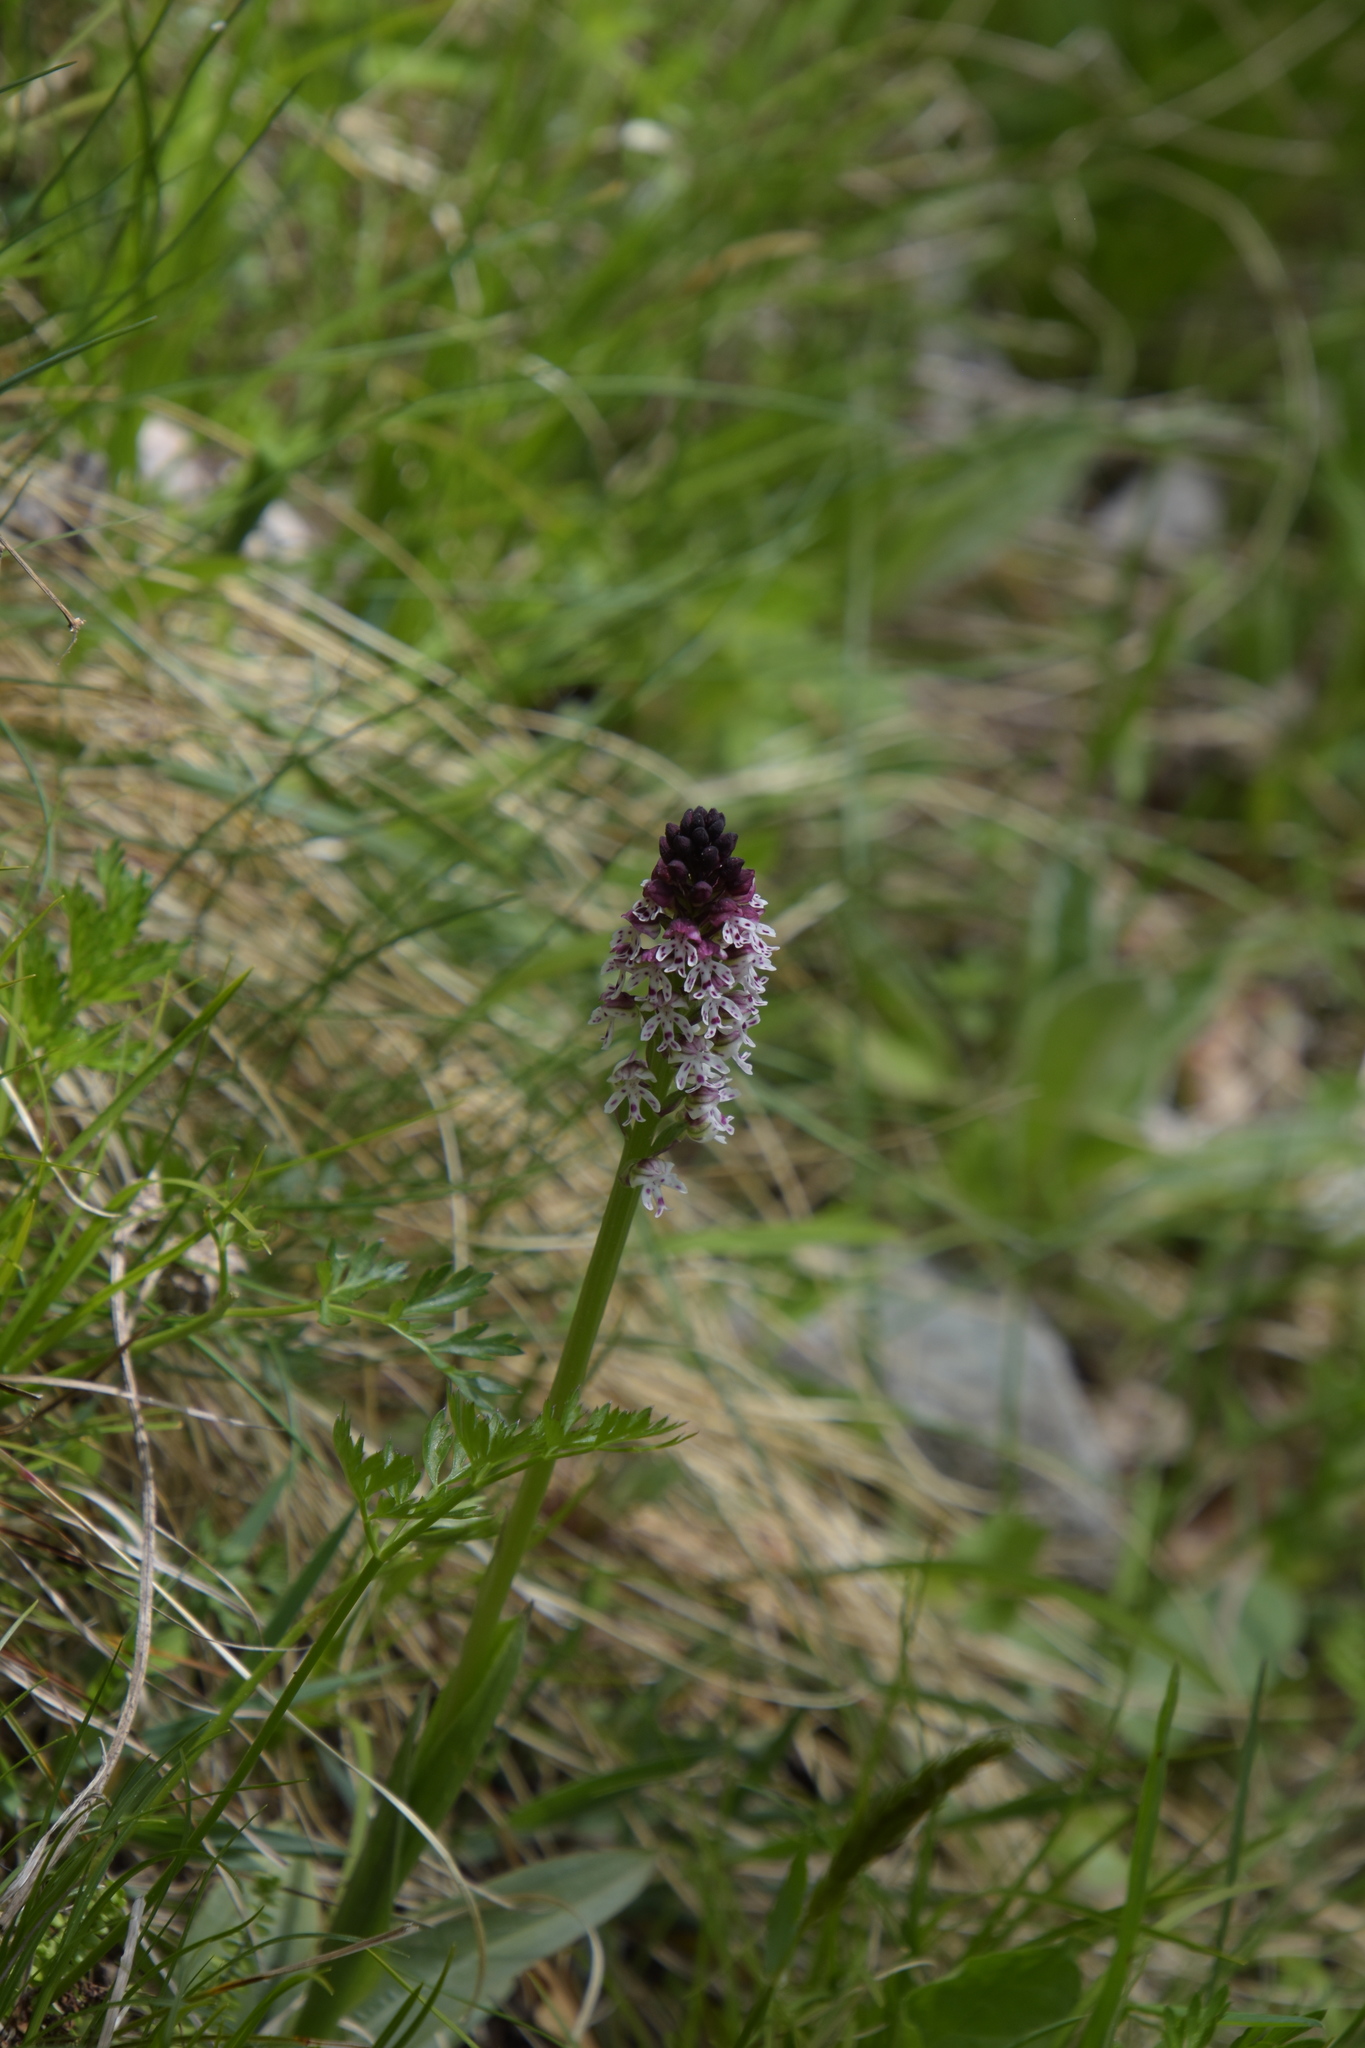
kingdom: Plantae
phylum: Tracheophyta
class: Liliopsida
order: Asparagales
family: Orchidaceae
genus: Neotinea
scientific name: Neotinea ustulata
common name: Burnt orchid
